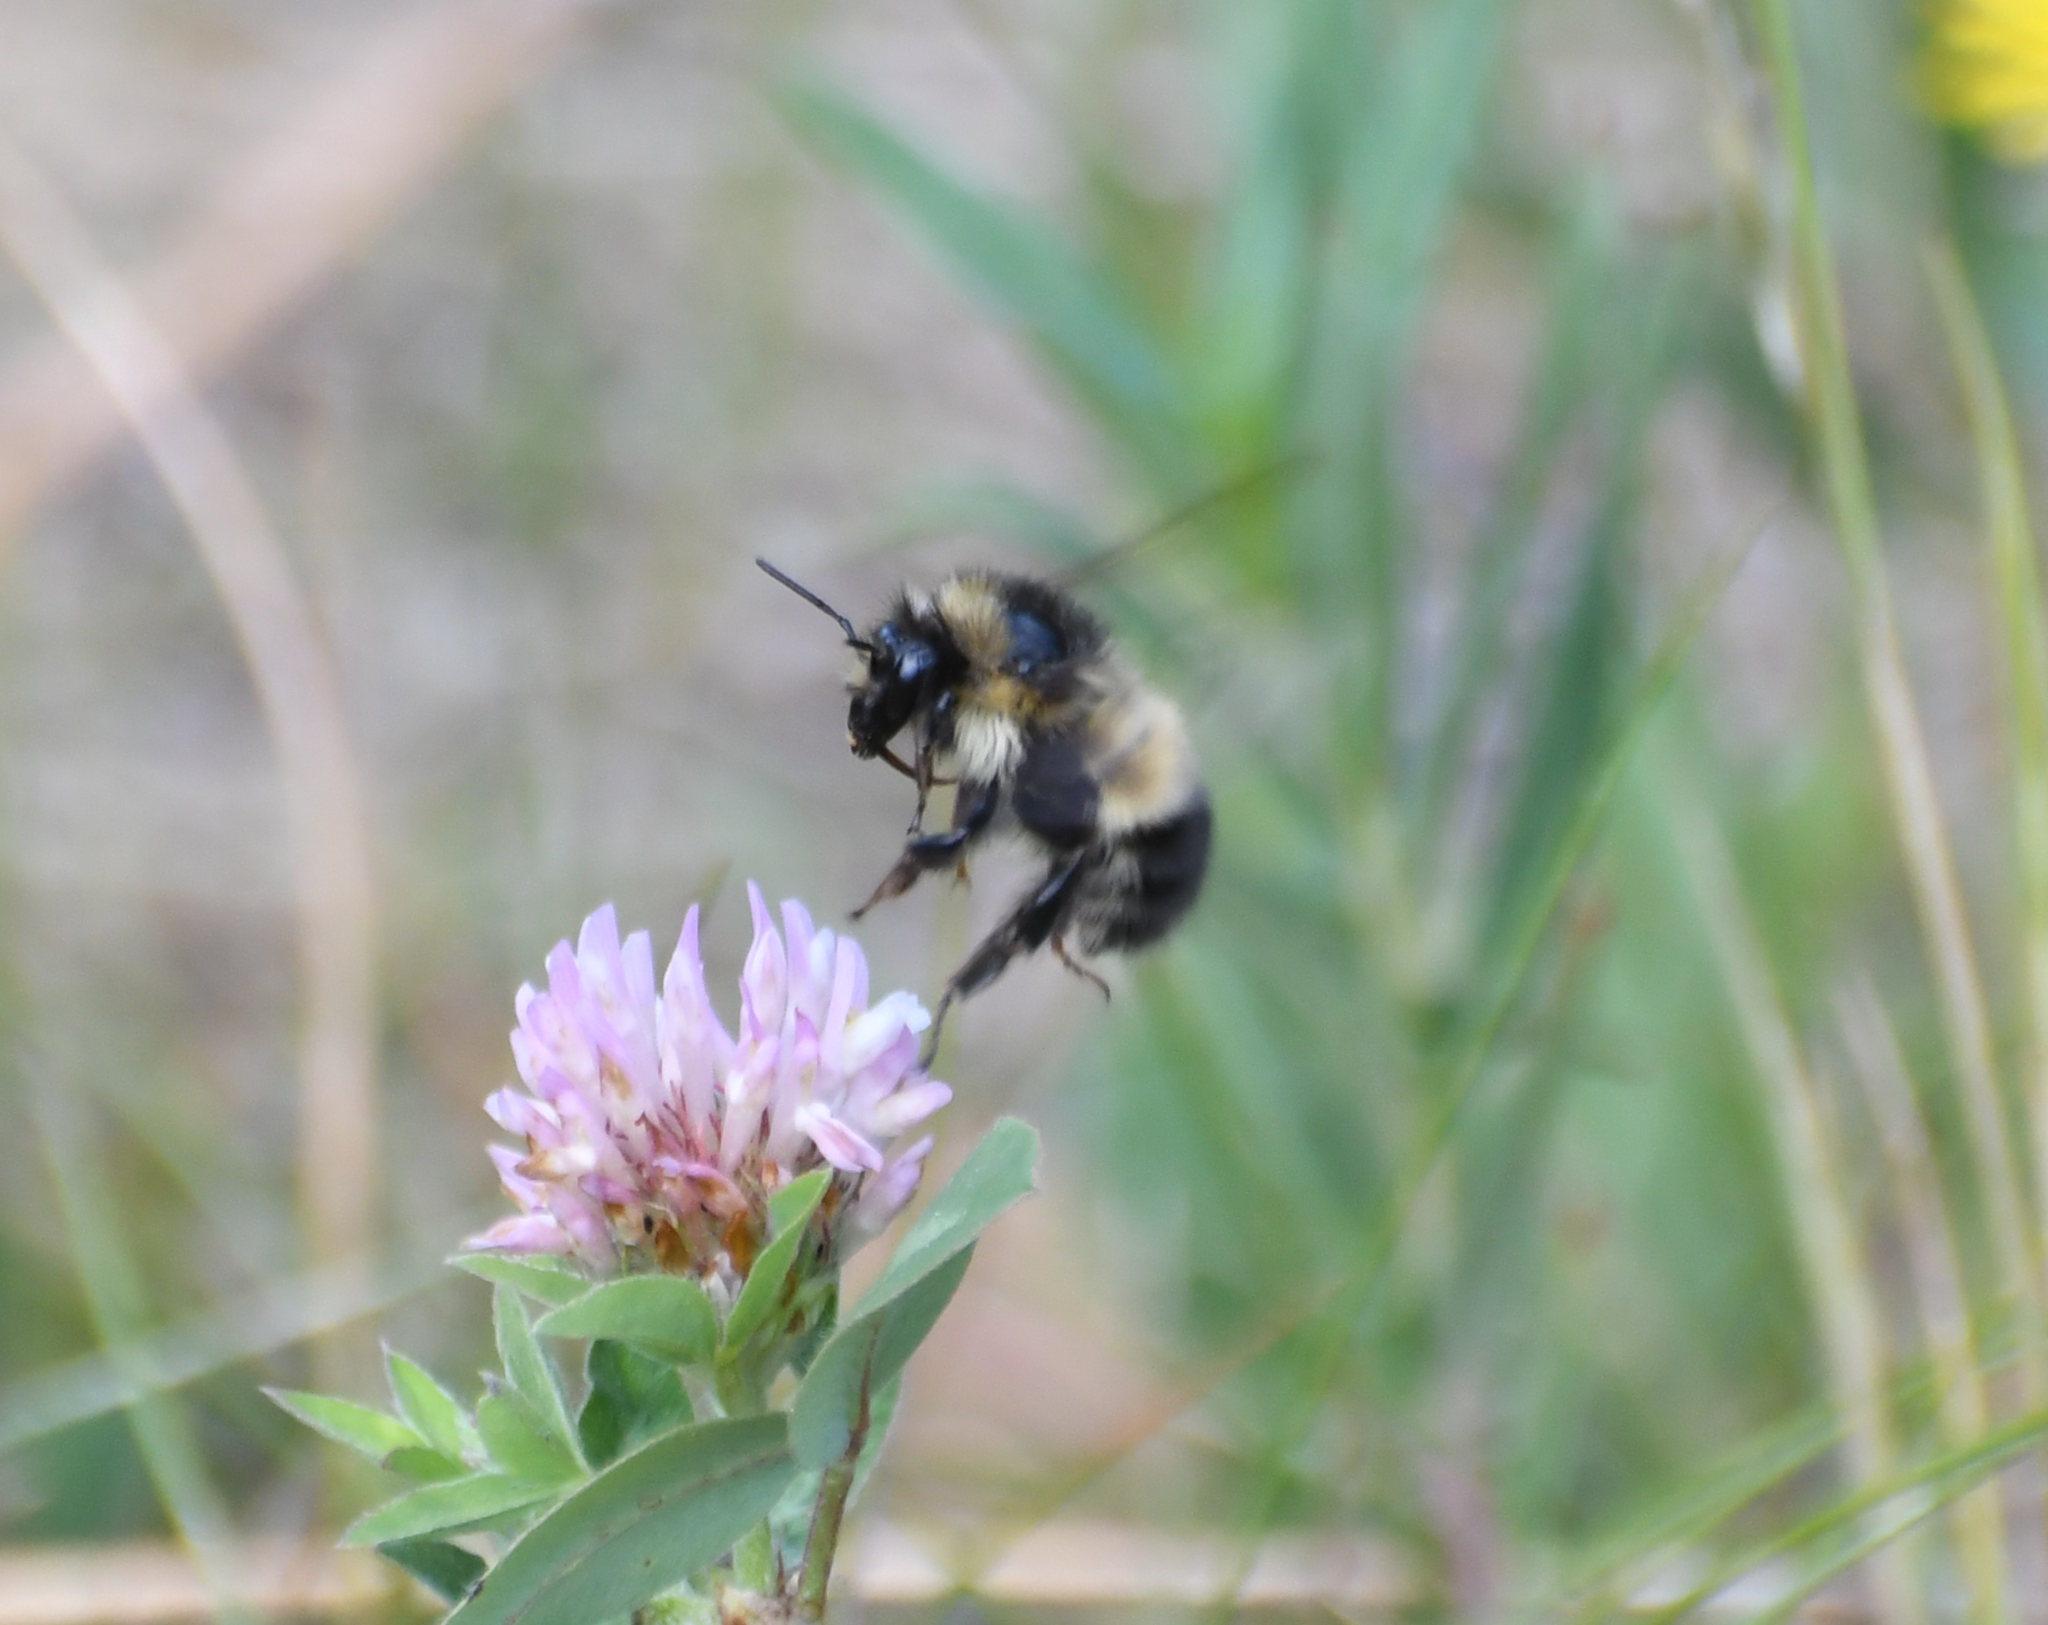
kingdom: Animalia
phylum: Arthropoda
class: Insecta
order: Hymenoptera
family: Apidae
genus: Bombus
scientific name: Bombus flavifrons
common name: Yellow head bumble bee
